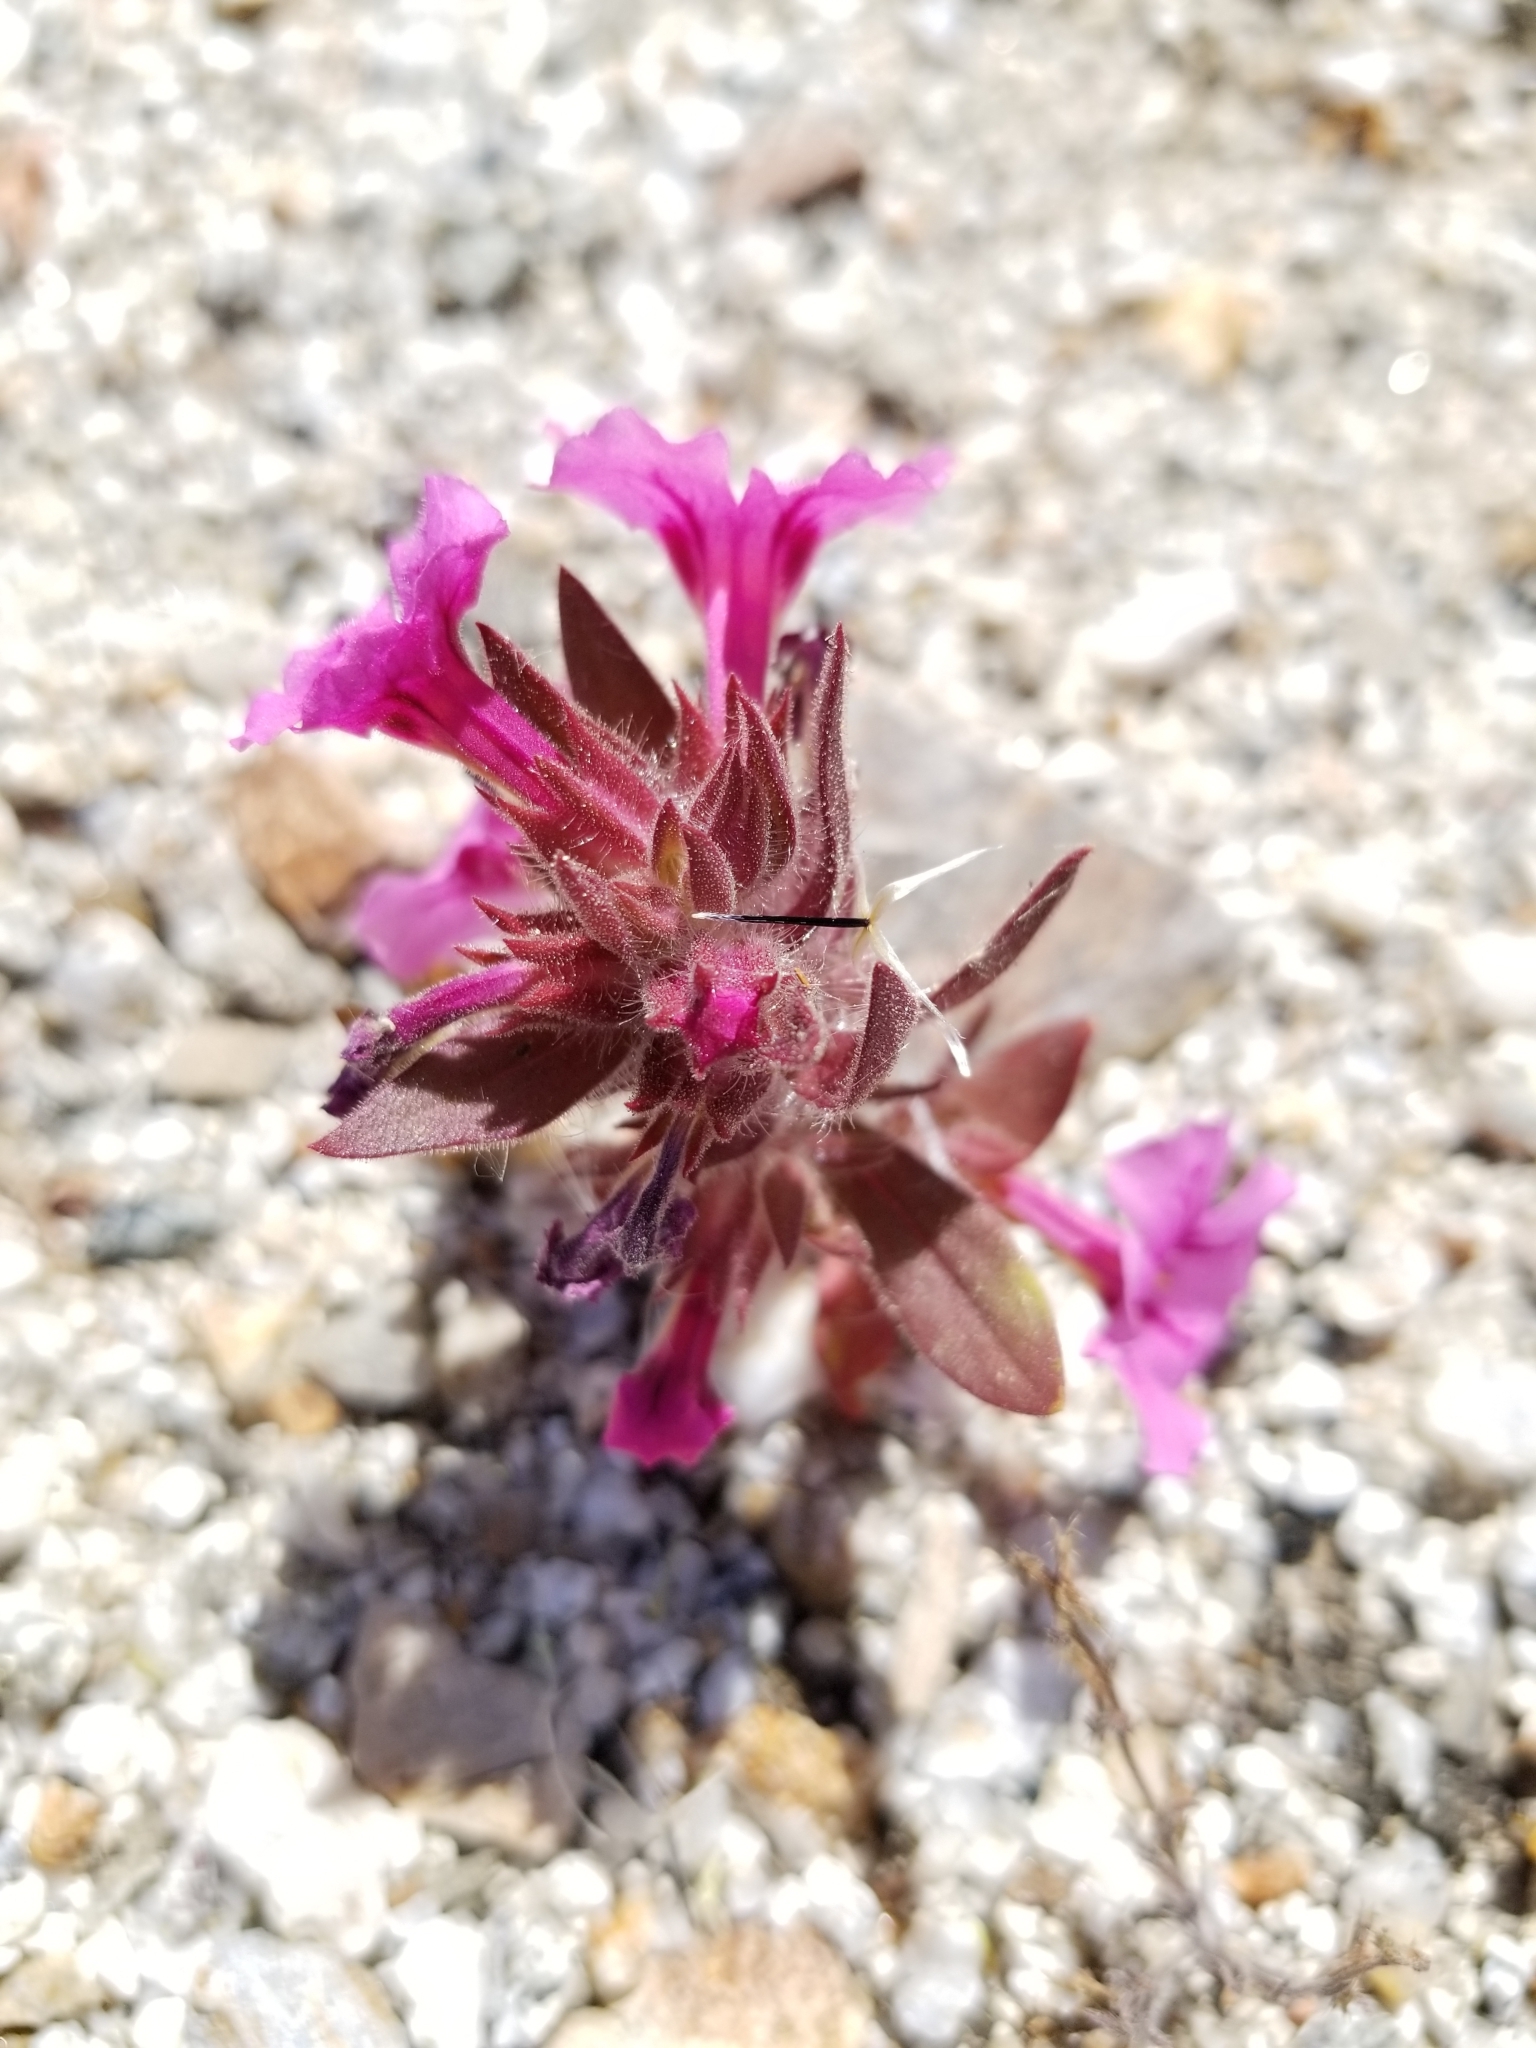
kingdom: Plantae
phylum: Tracheophyta
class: Magnoliopsida
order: Lamiales
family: Phrymaceae
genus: Diplacus
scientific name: Diplacus bigelovii
